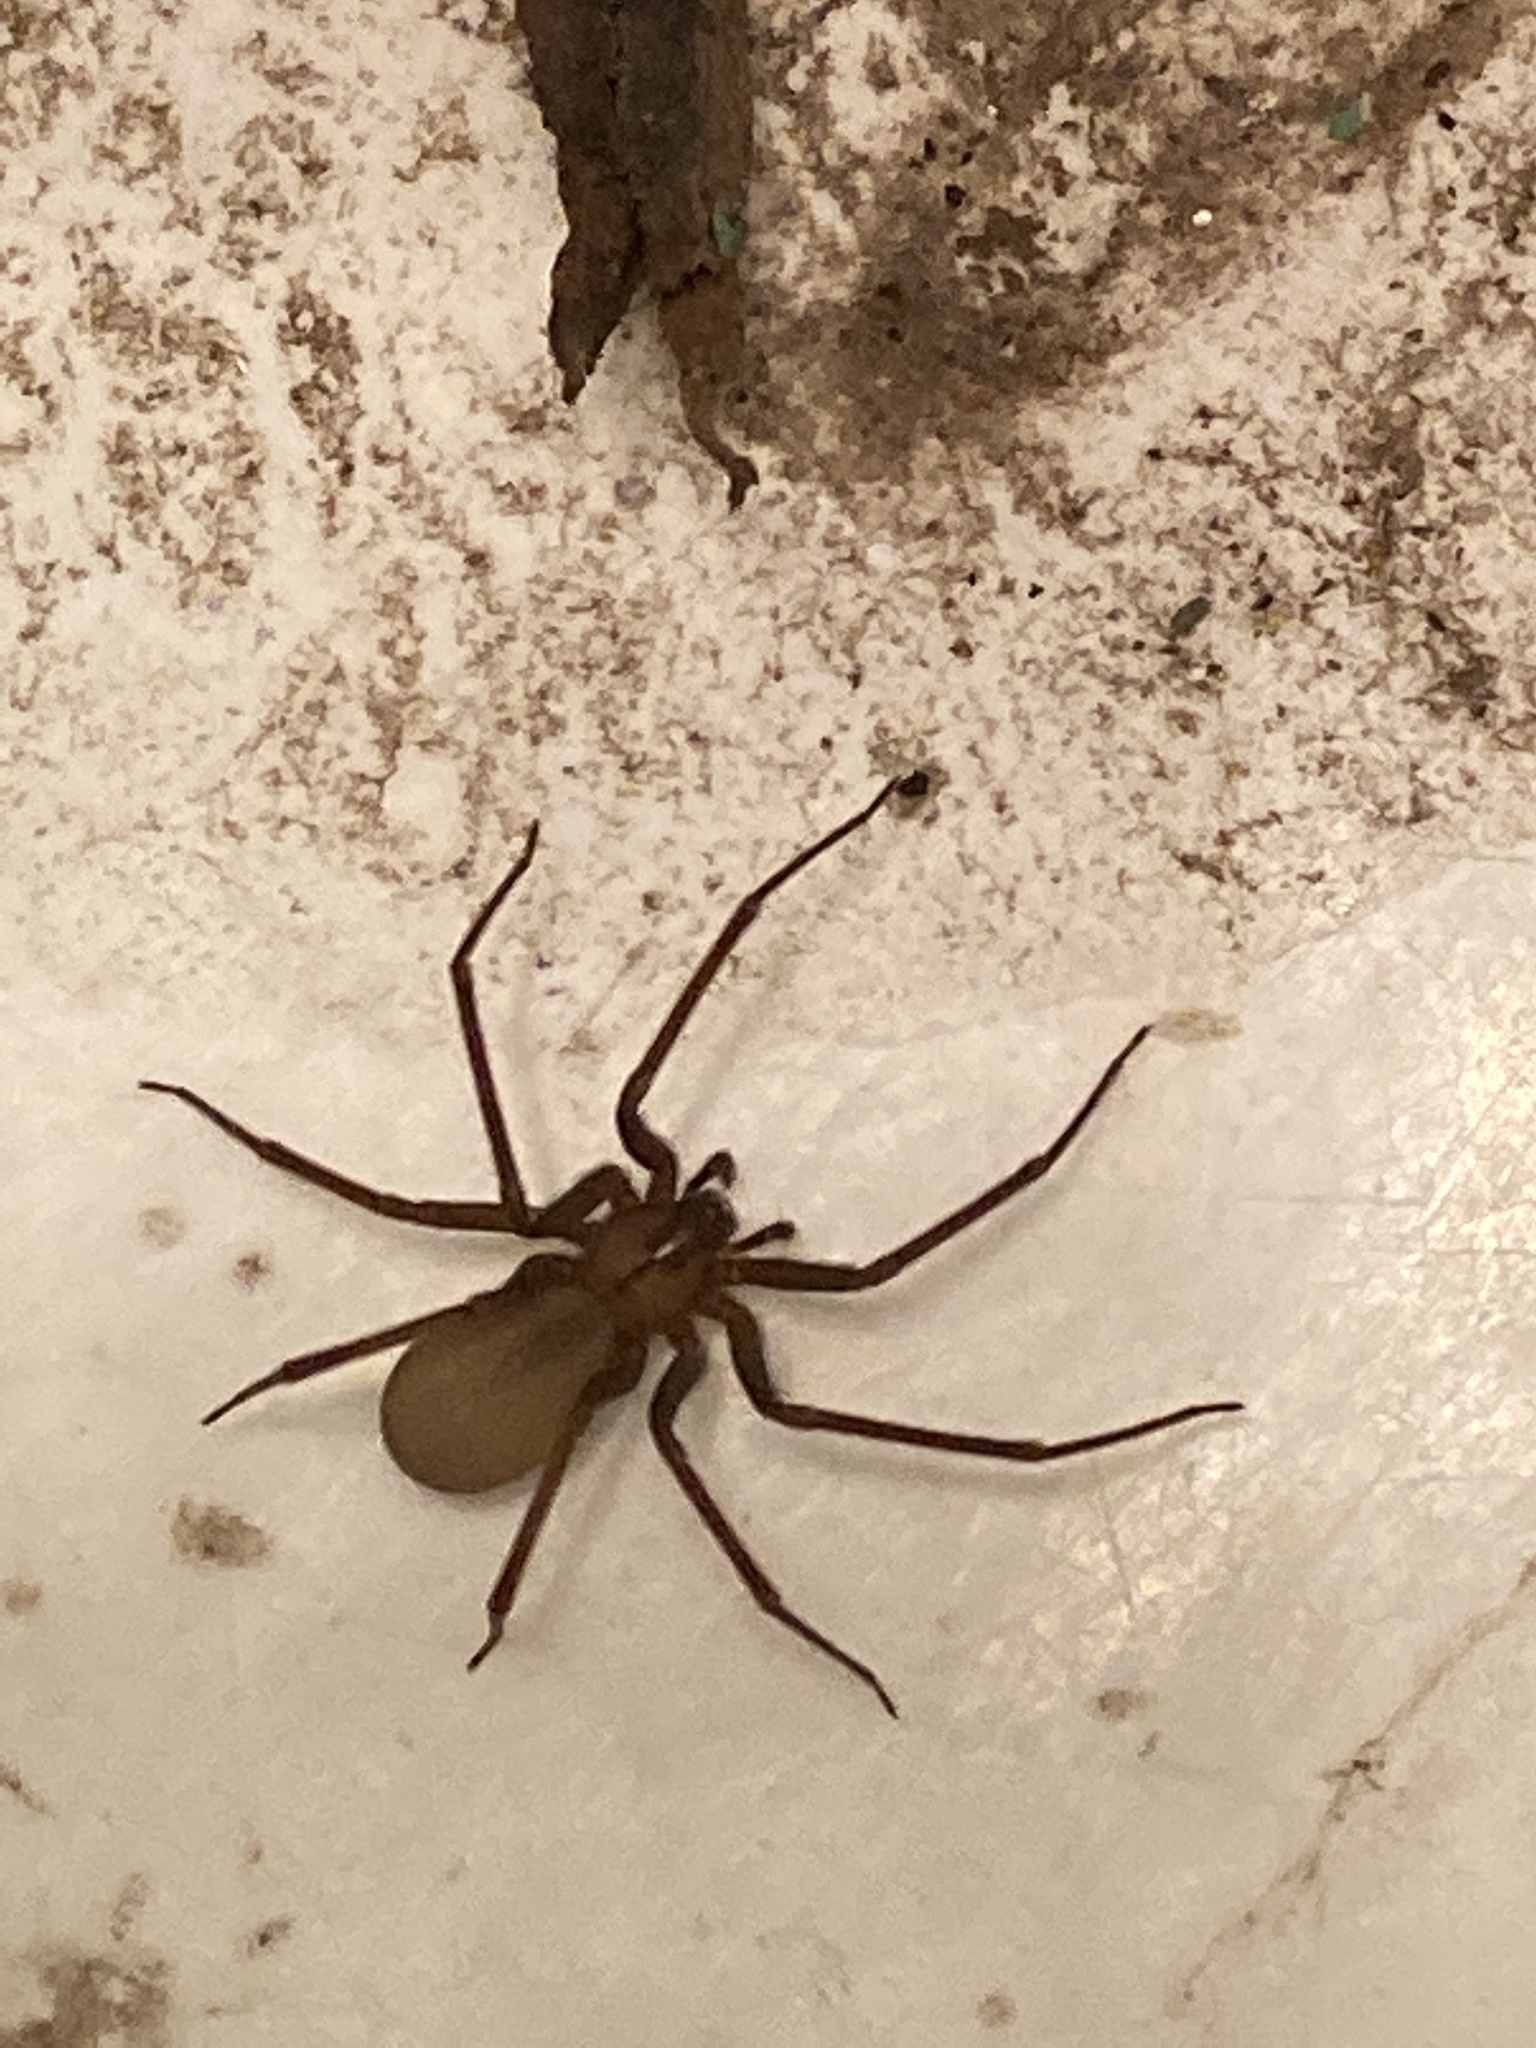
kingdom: Animalia
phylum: Arthropoda
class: Arachnida
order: Araneae
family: Sicariidae
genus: Loxosceles
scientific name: Loxosceles reclusa
